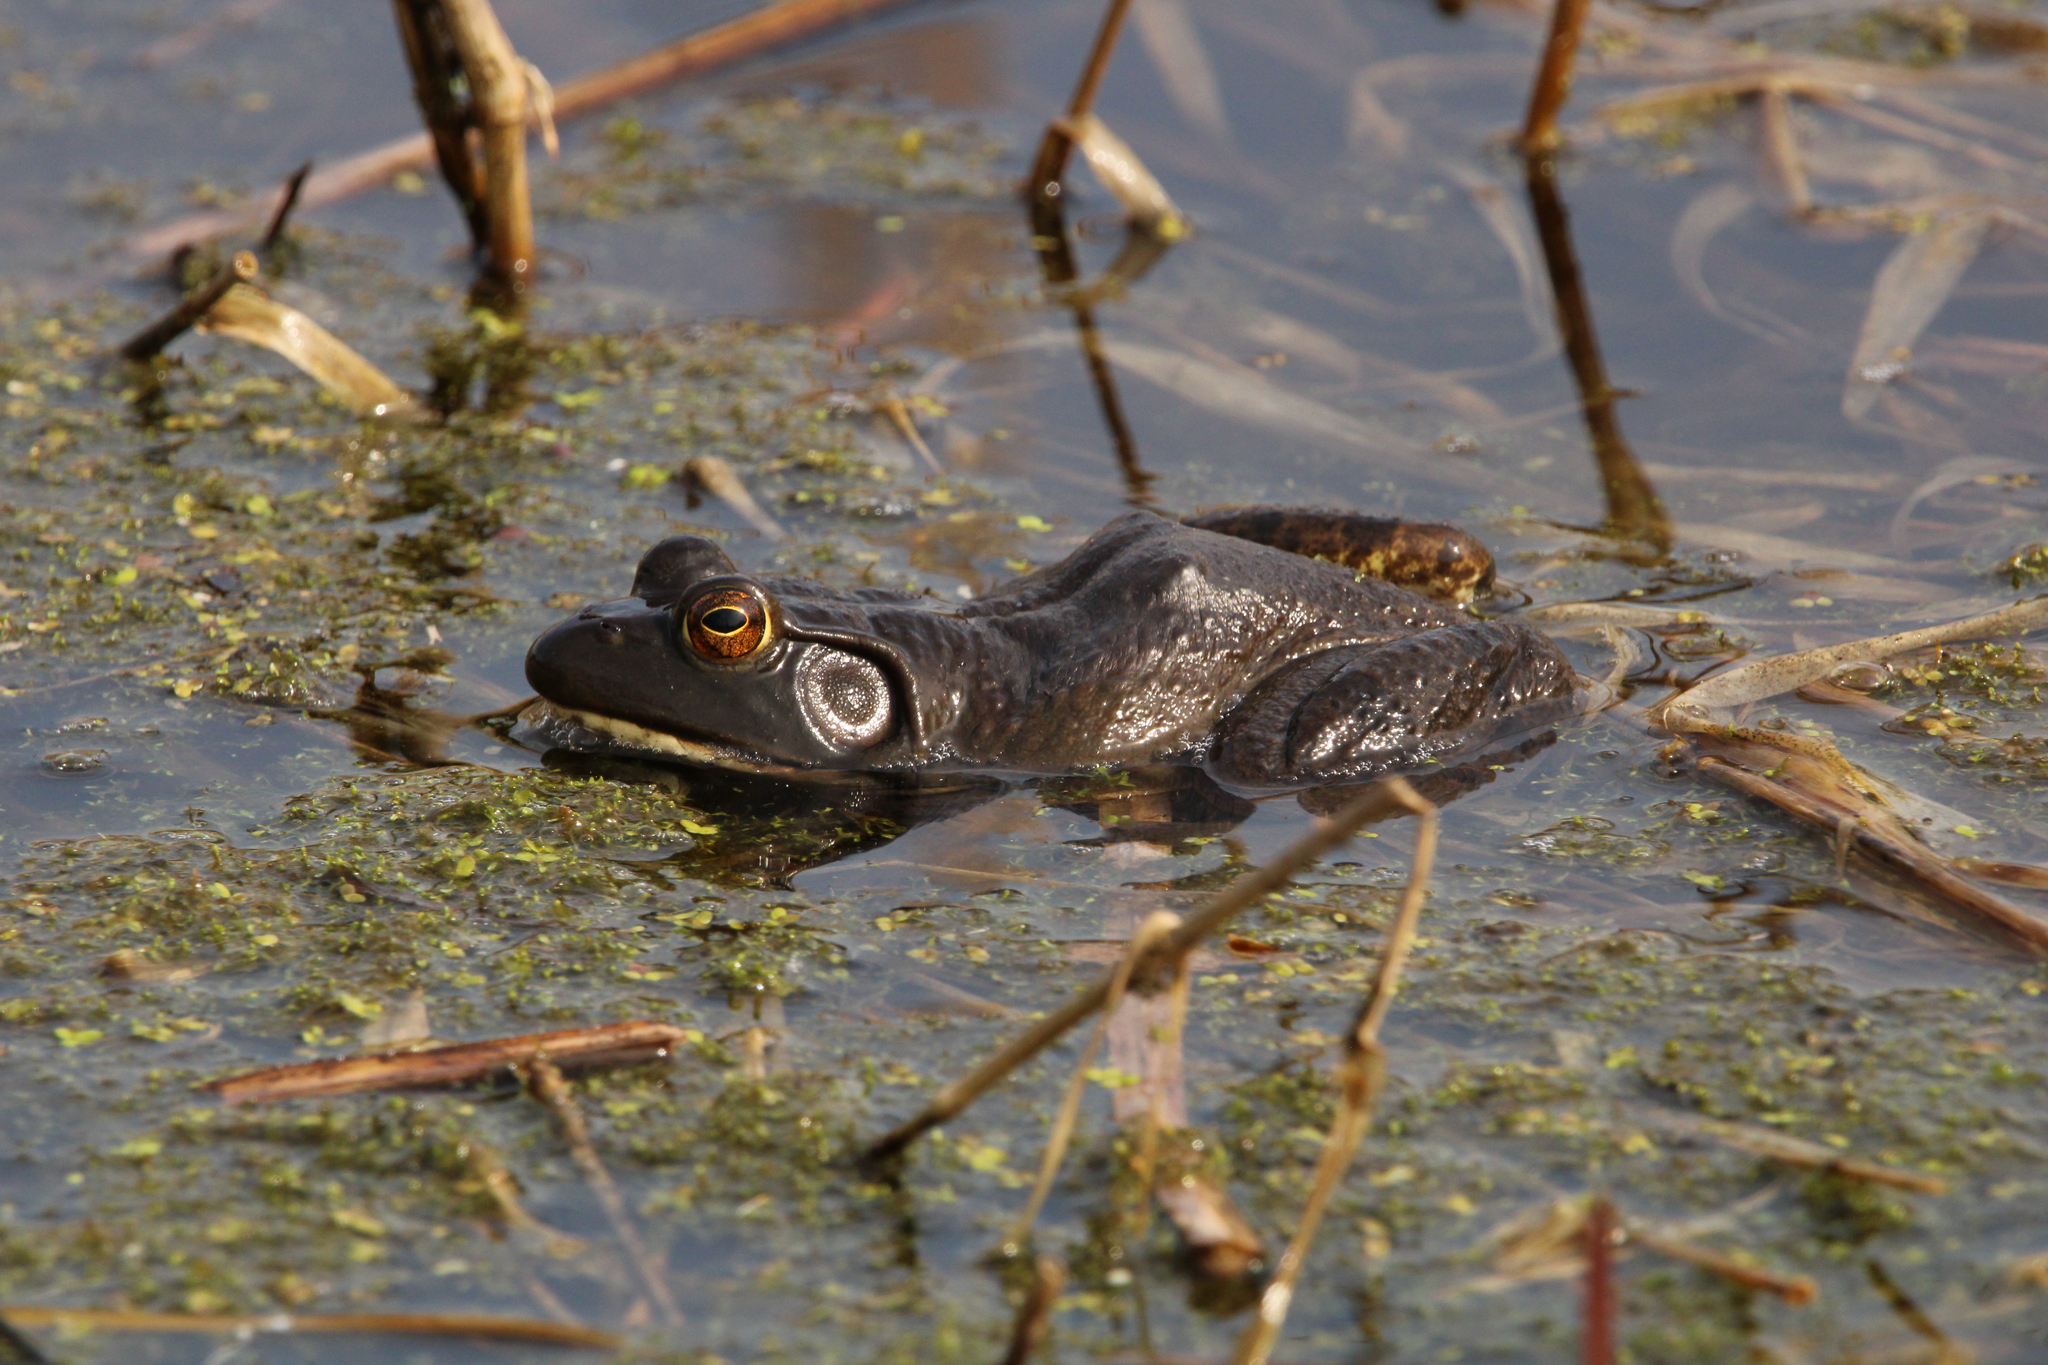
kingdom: Animalia
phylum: Chordata
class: Amphibia
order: Anura
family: Ranidae
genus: Lithobates
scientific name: Lithobates catesbeianus
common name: American bullfrog
